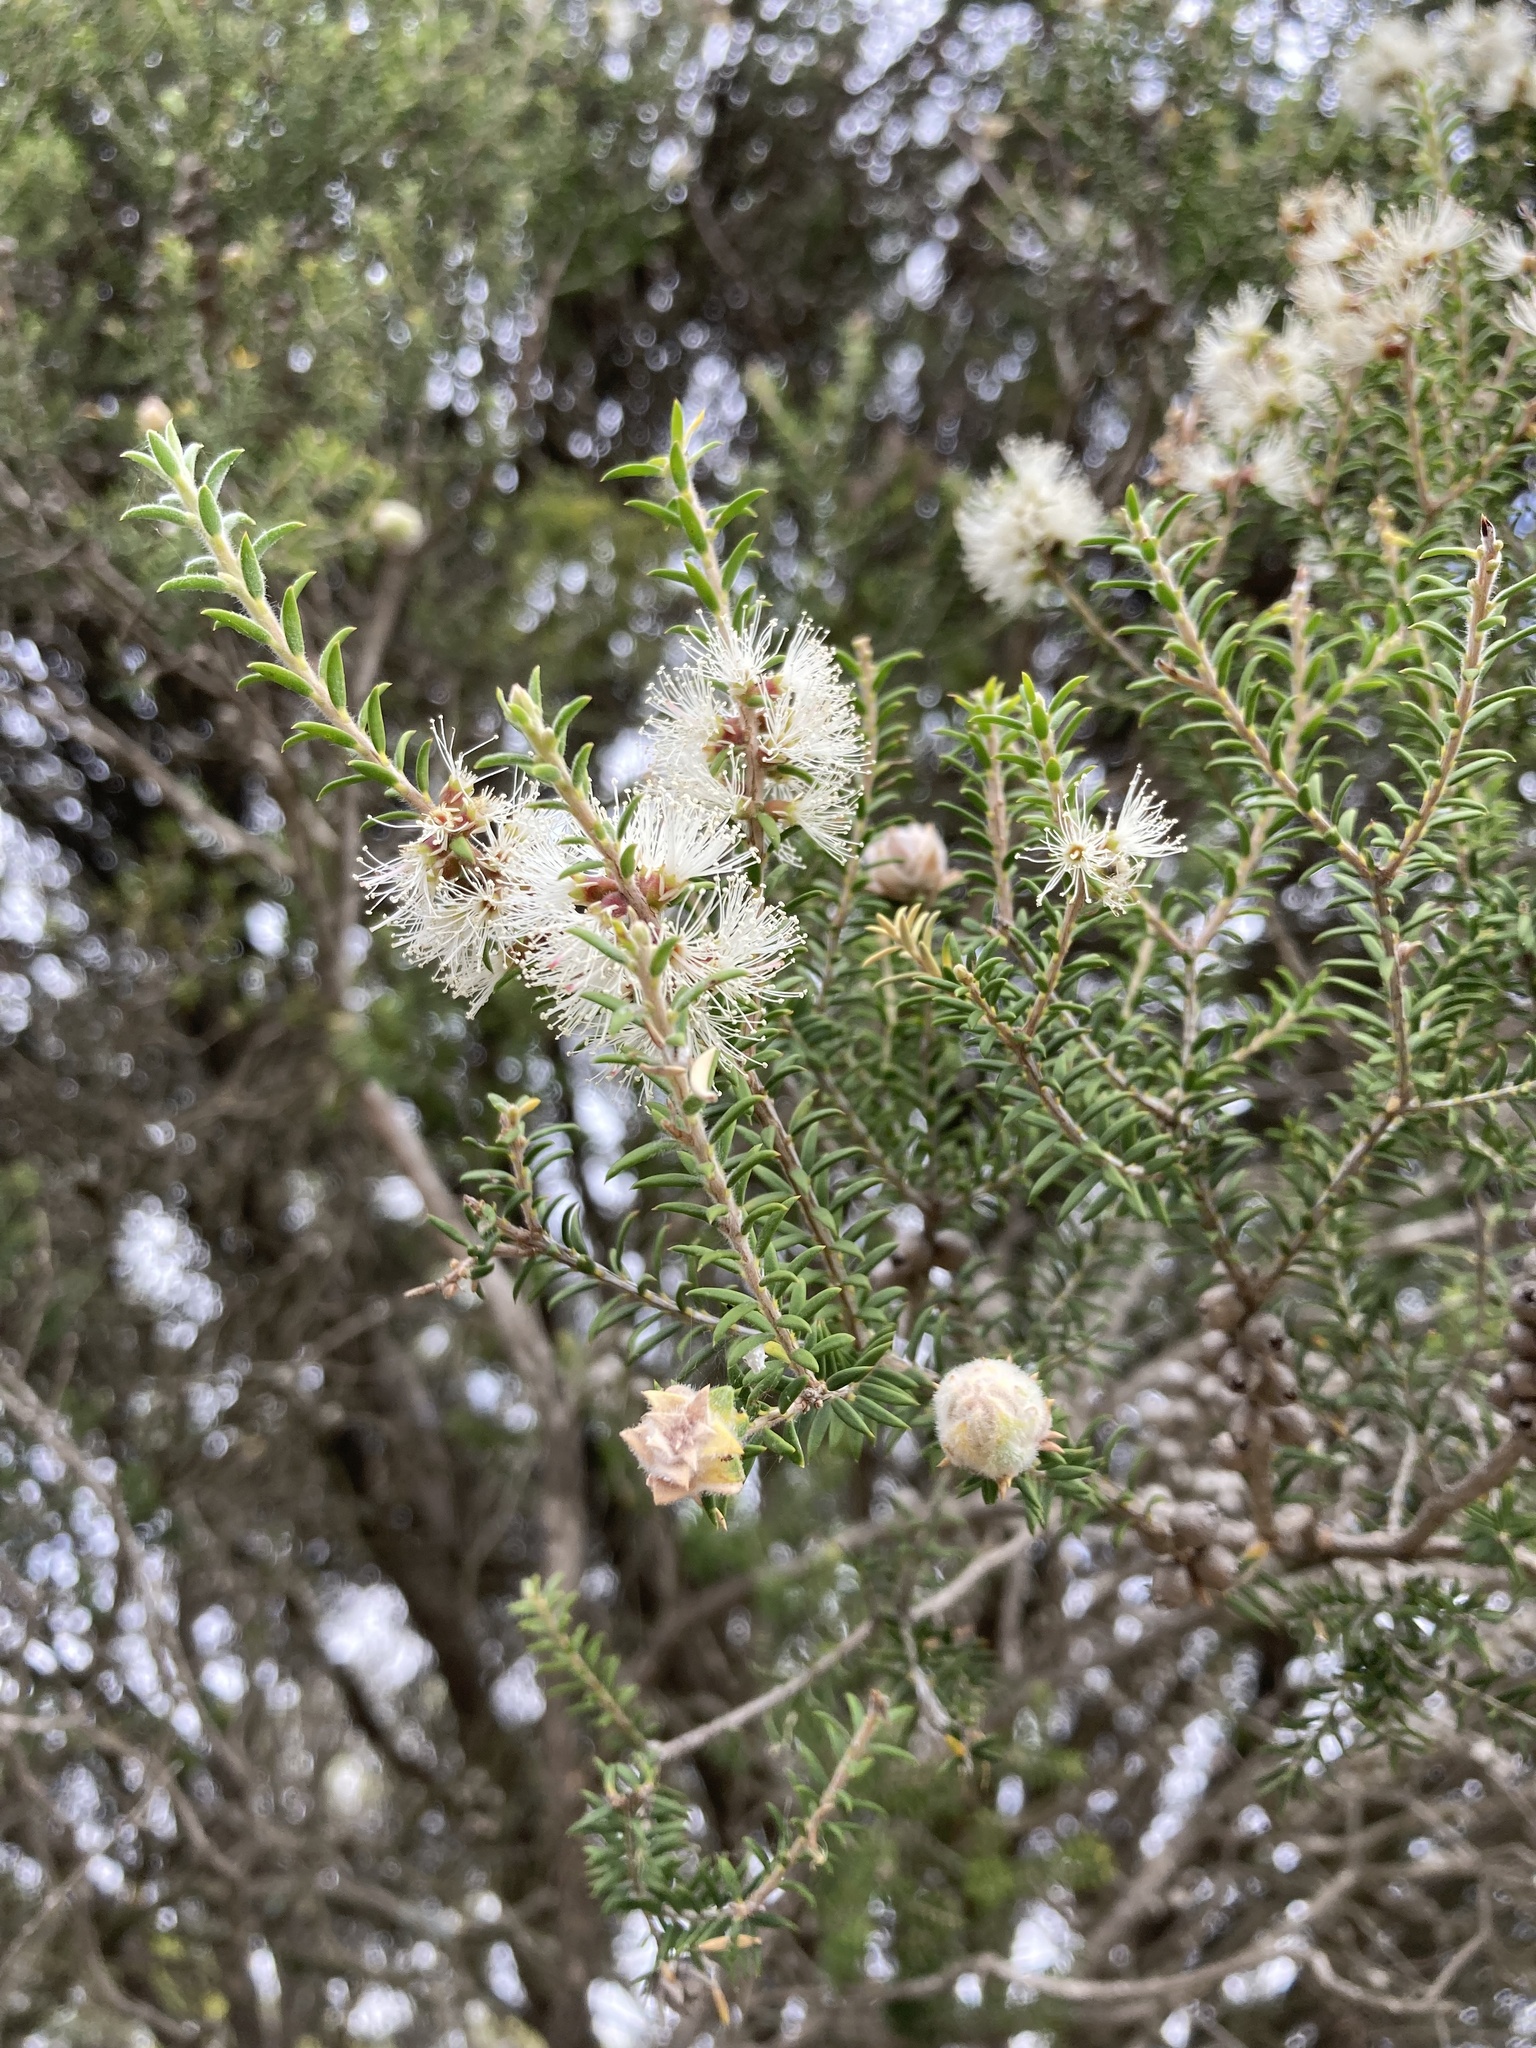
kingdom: Plantae
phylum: Tracheophyta
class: Magnoliopsida
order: Myrtales
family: Myrtaceae
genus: Melaleuca
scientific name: Melaleuca lanceolata
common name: Rottnest island teatree
